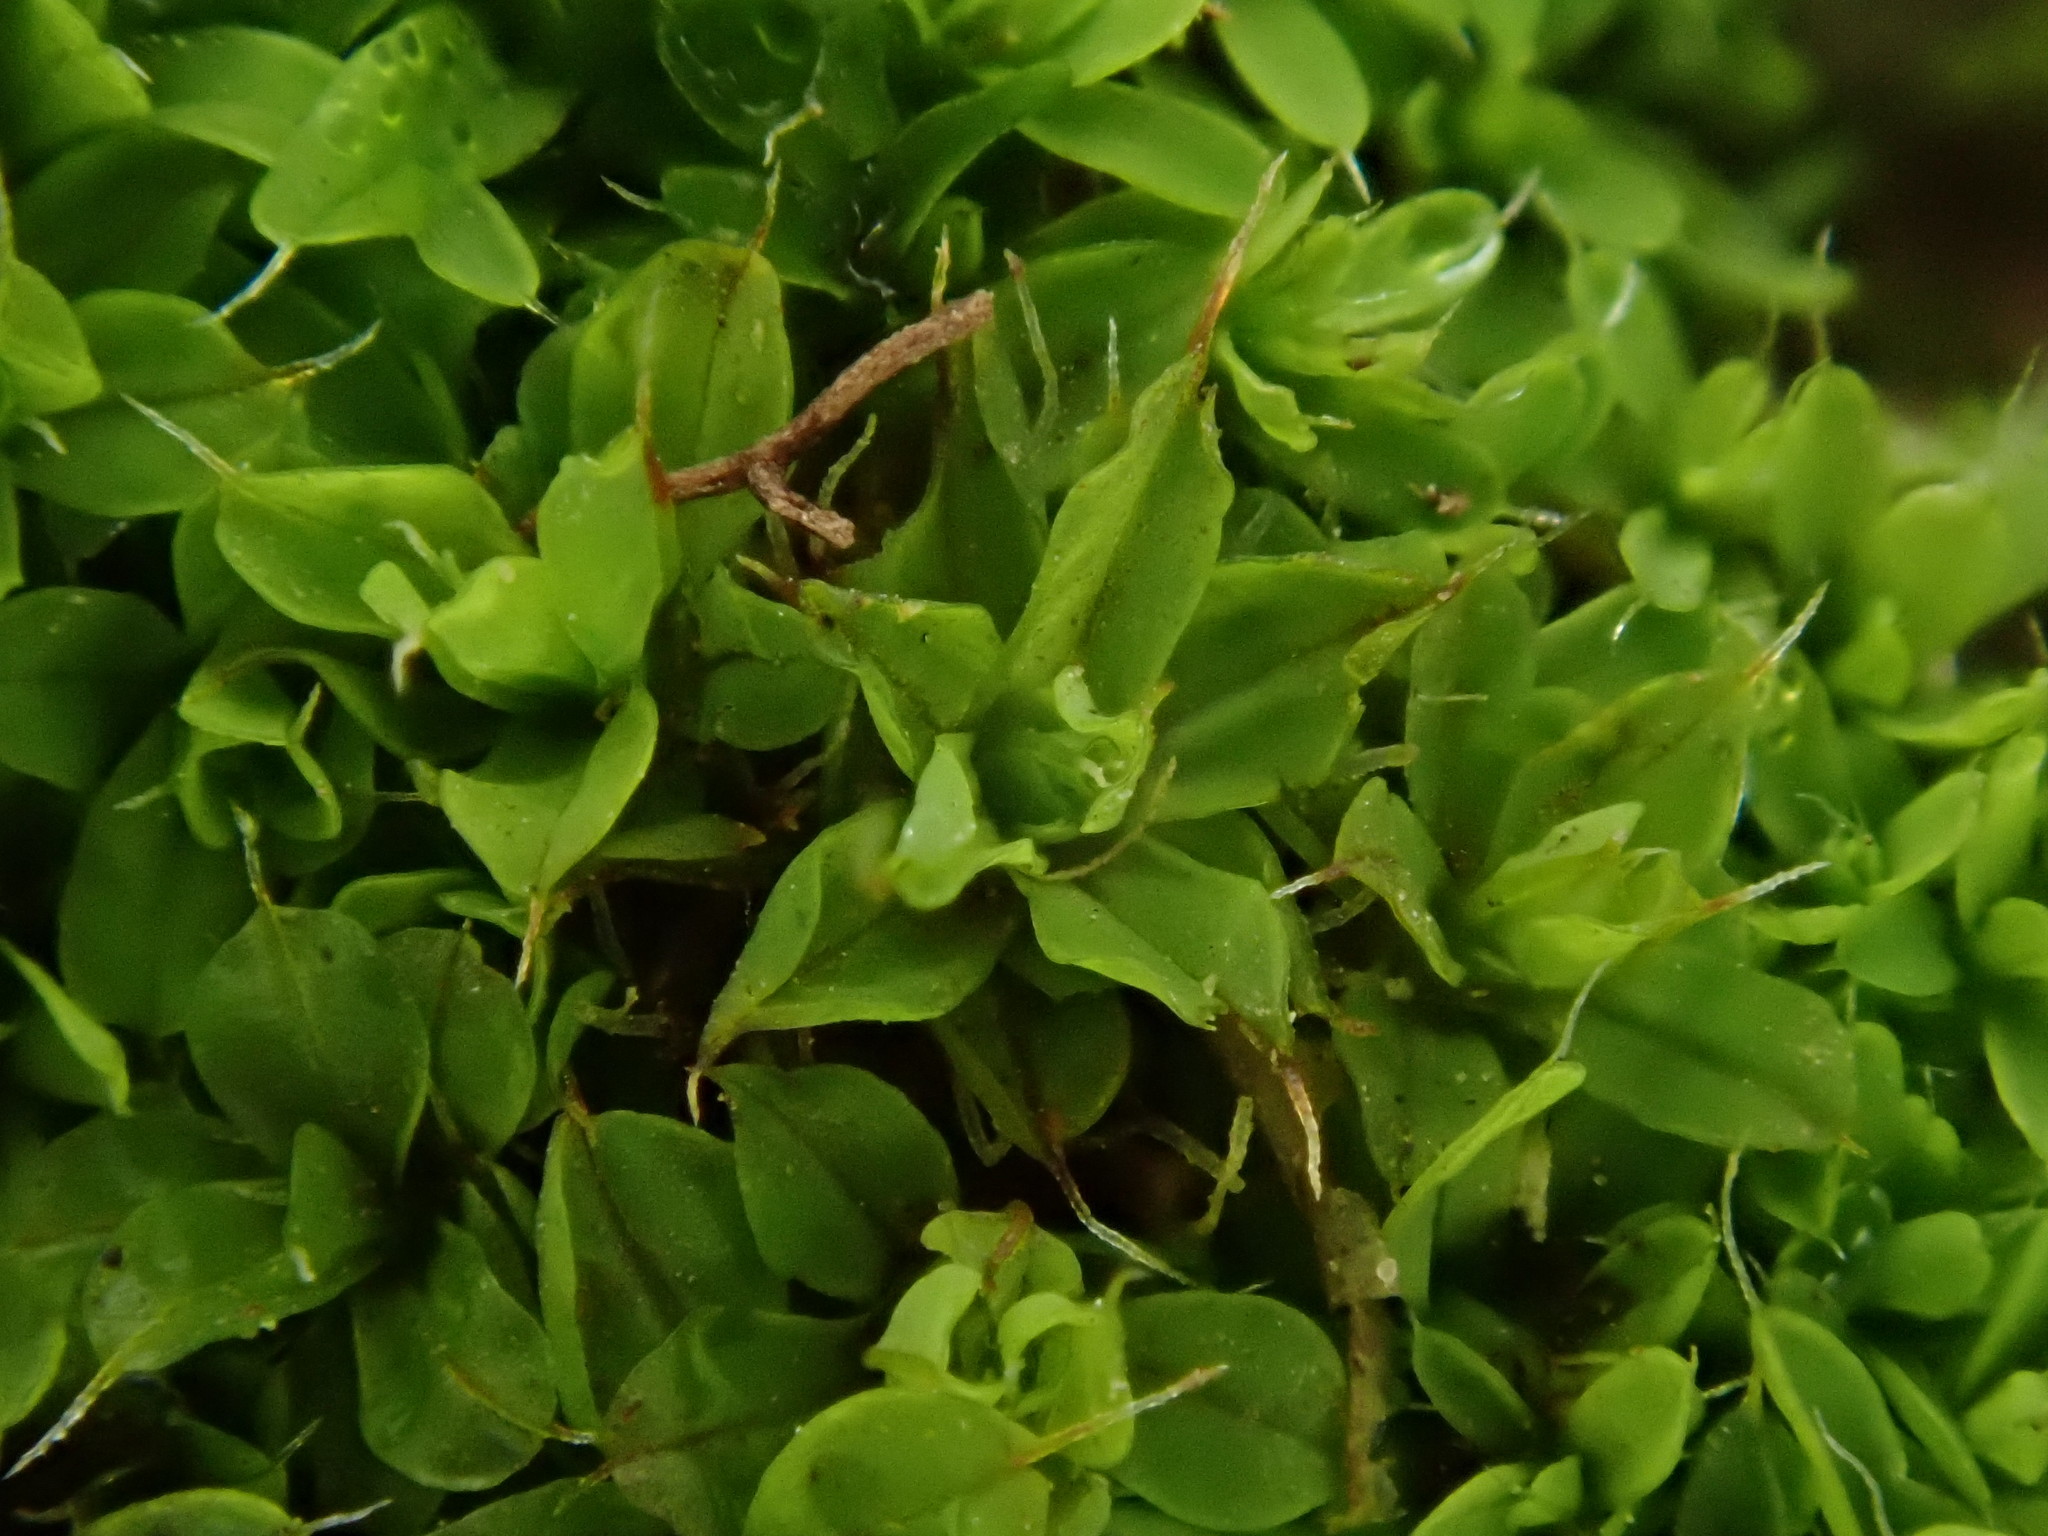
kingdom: Plantae
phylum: Bryophyta
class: Bryopsida
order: Pottiales
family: Pottiaceae
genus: Tortula
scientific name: Tortula muralis
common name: Wall screw-moss
